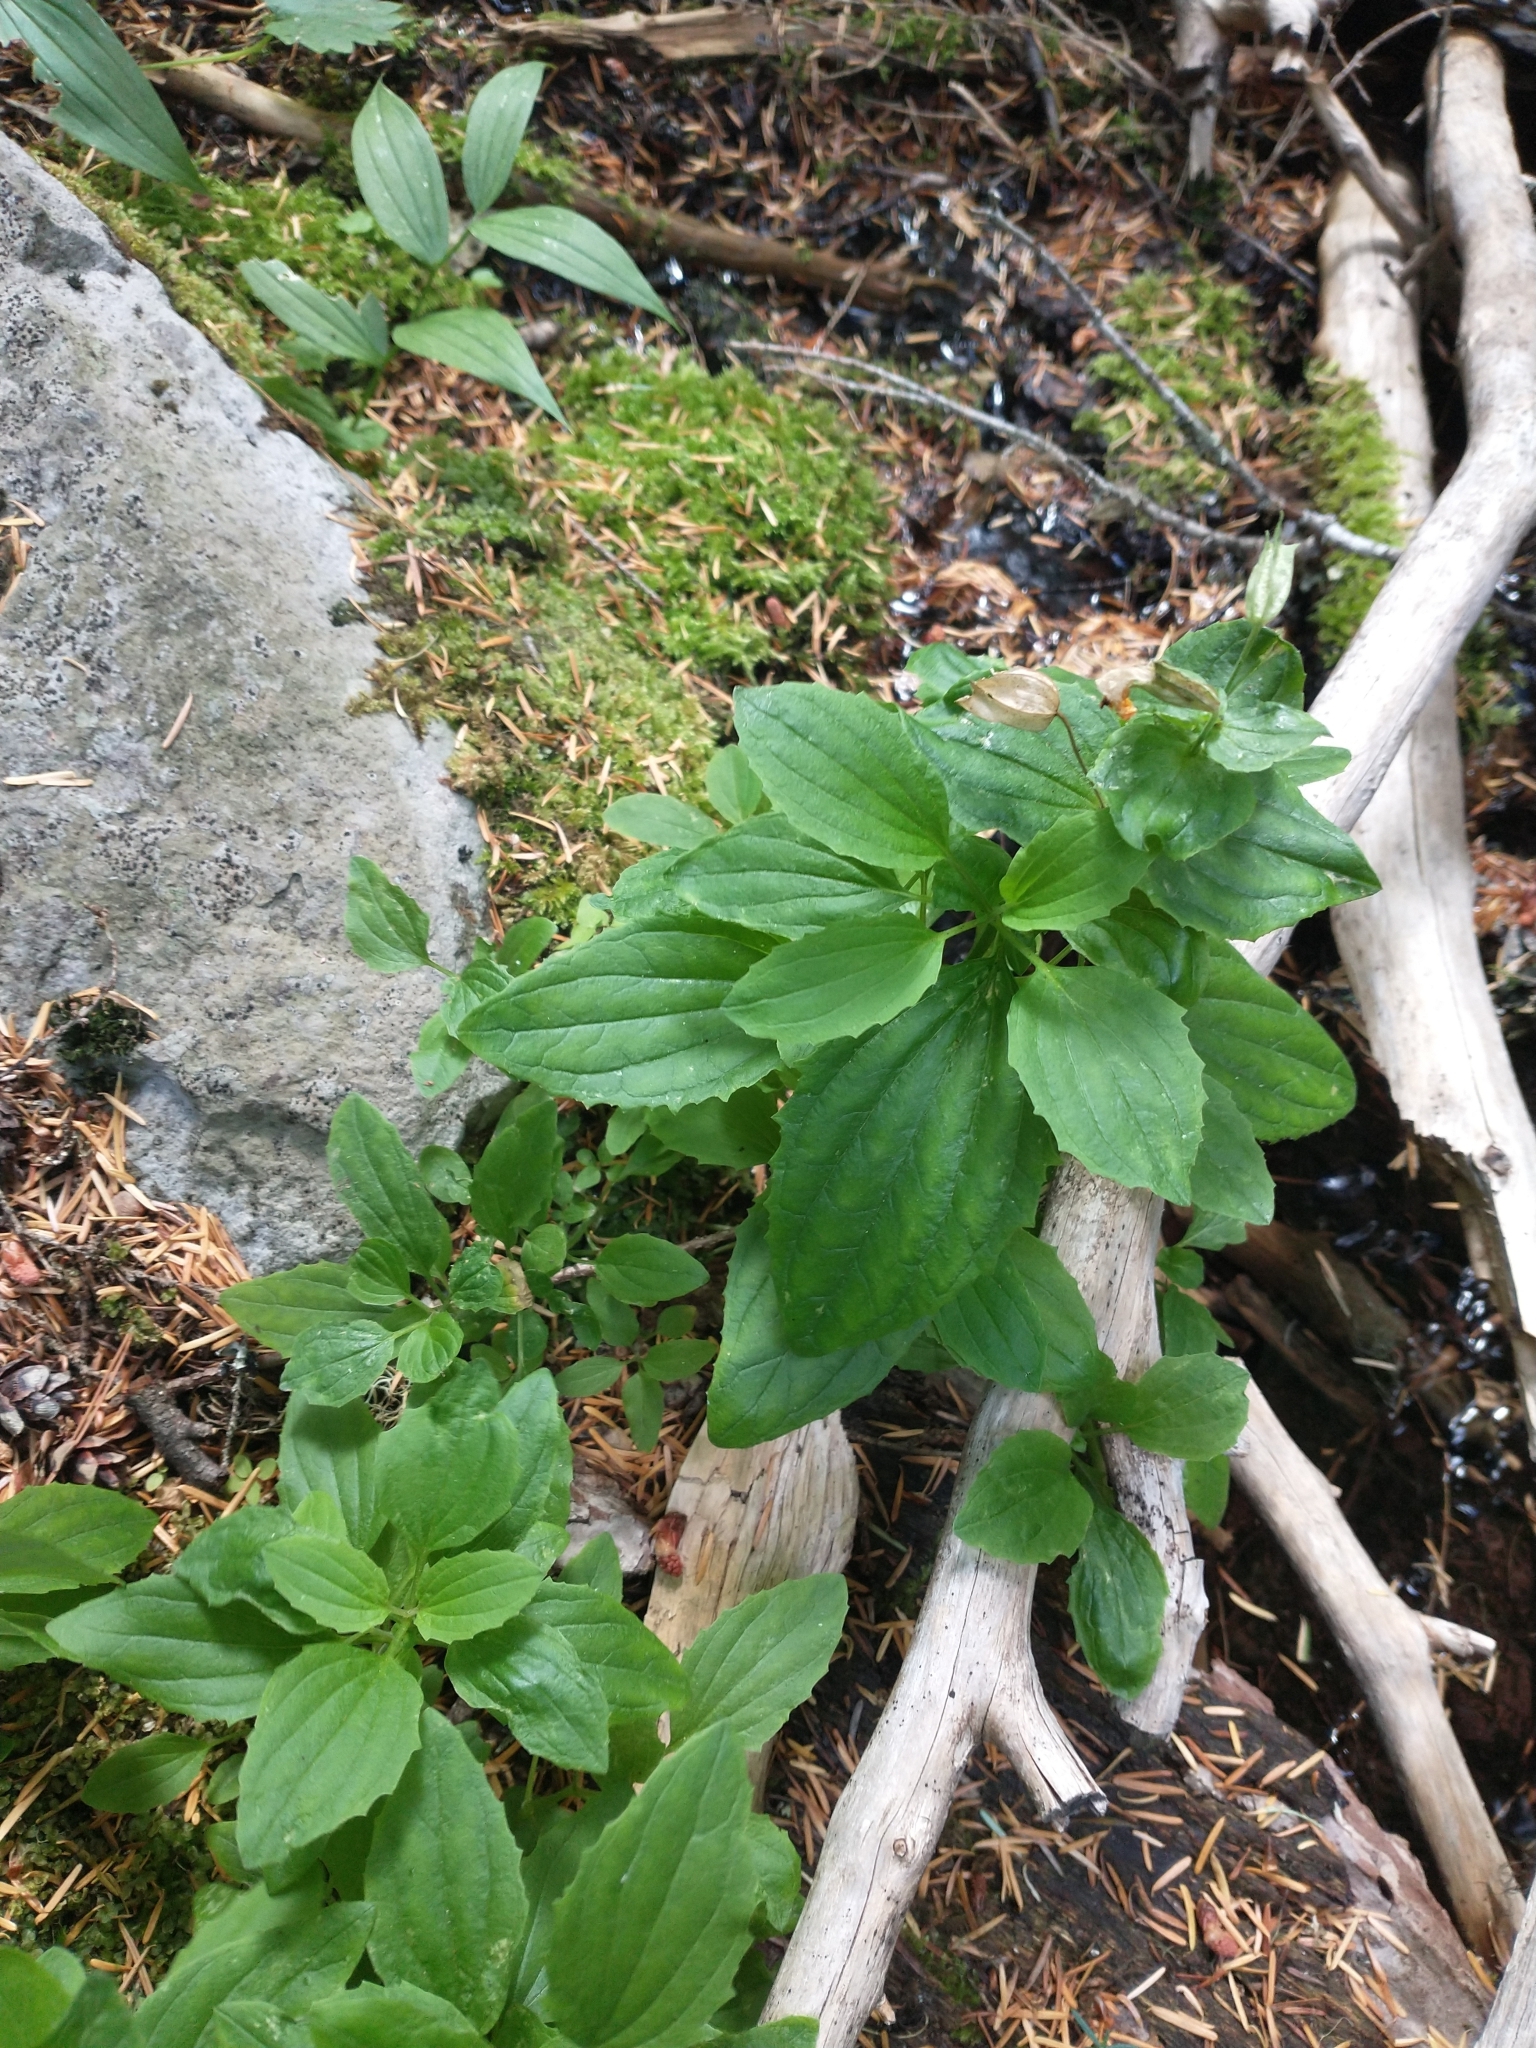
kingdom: Plantae
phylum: Tracheophyta
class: Magnoliopsida
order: Lamiales
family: Phrymaceae
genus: Erythranthe
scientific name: Erythranthe decora
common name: Mannered monkeyflower
